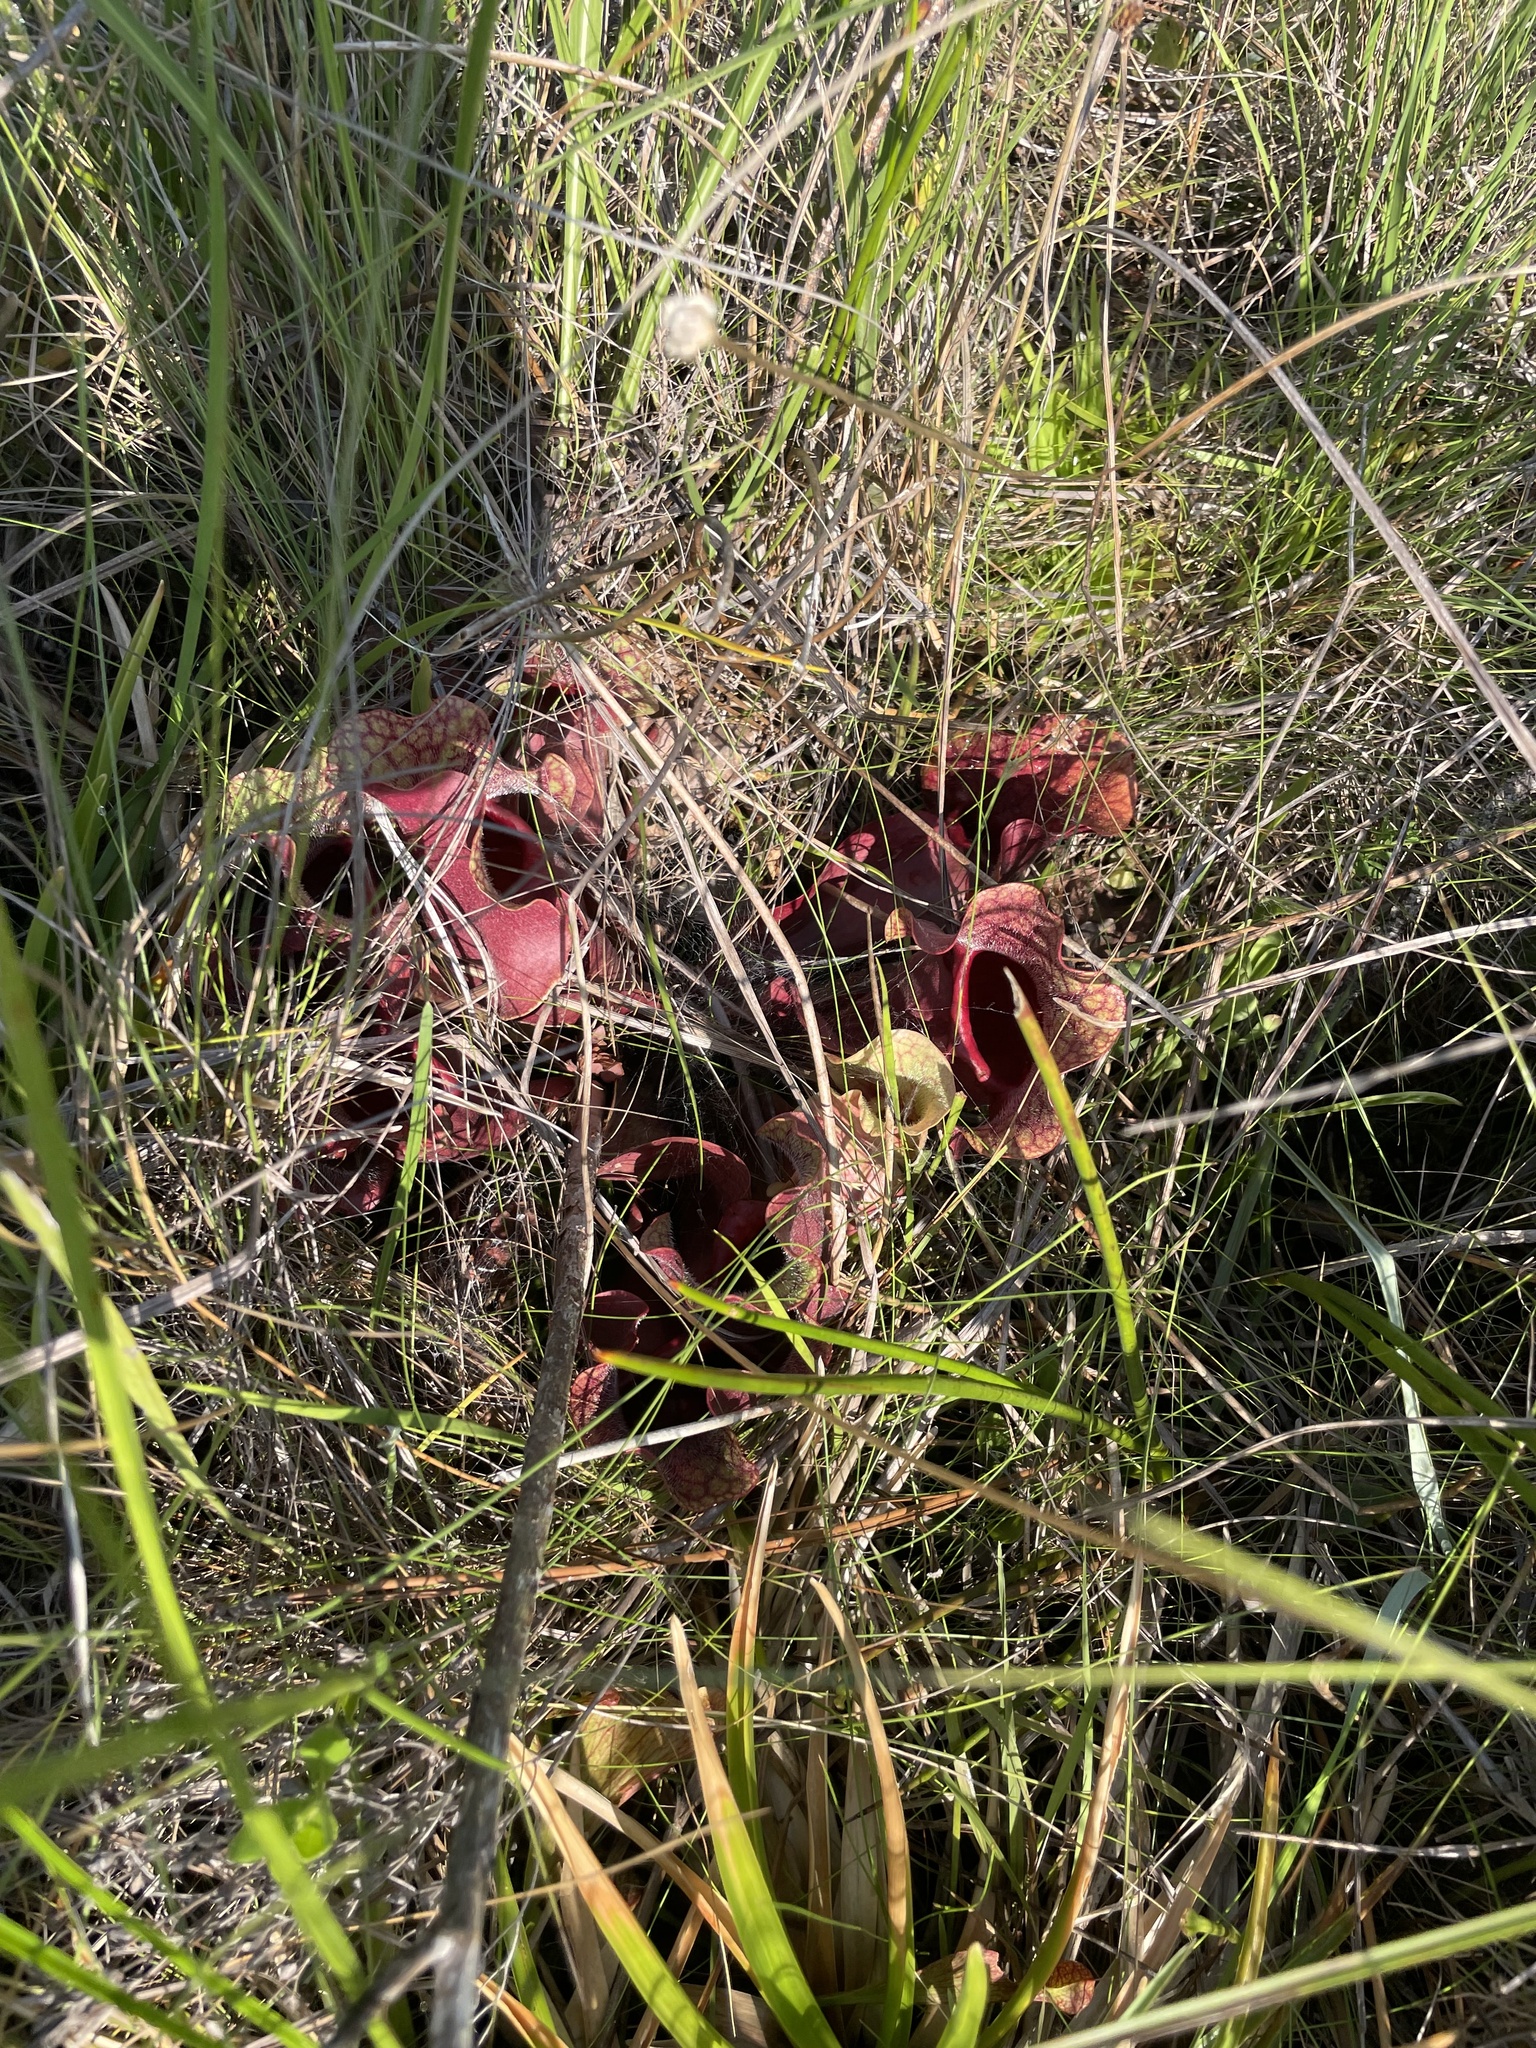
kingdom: Plantae
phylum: Tracheophyta
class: Magnoliopsida
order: Ericales
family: Sarraceniaceae
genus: Sarracenia
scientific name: Sarracenia rosea
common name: Pink pitcherplant
